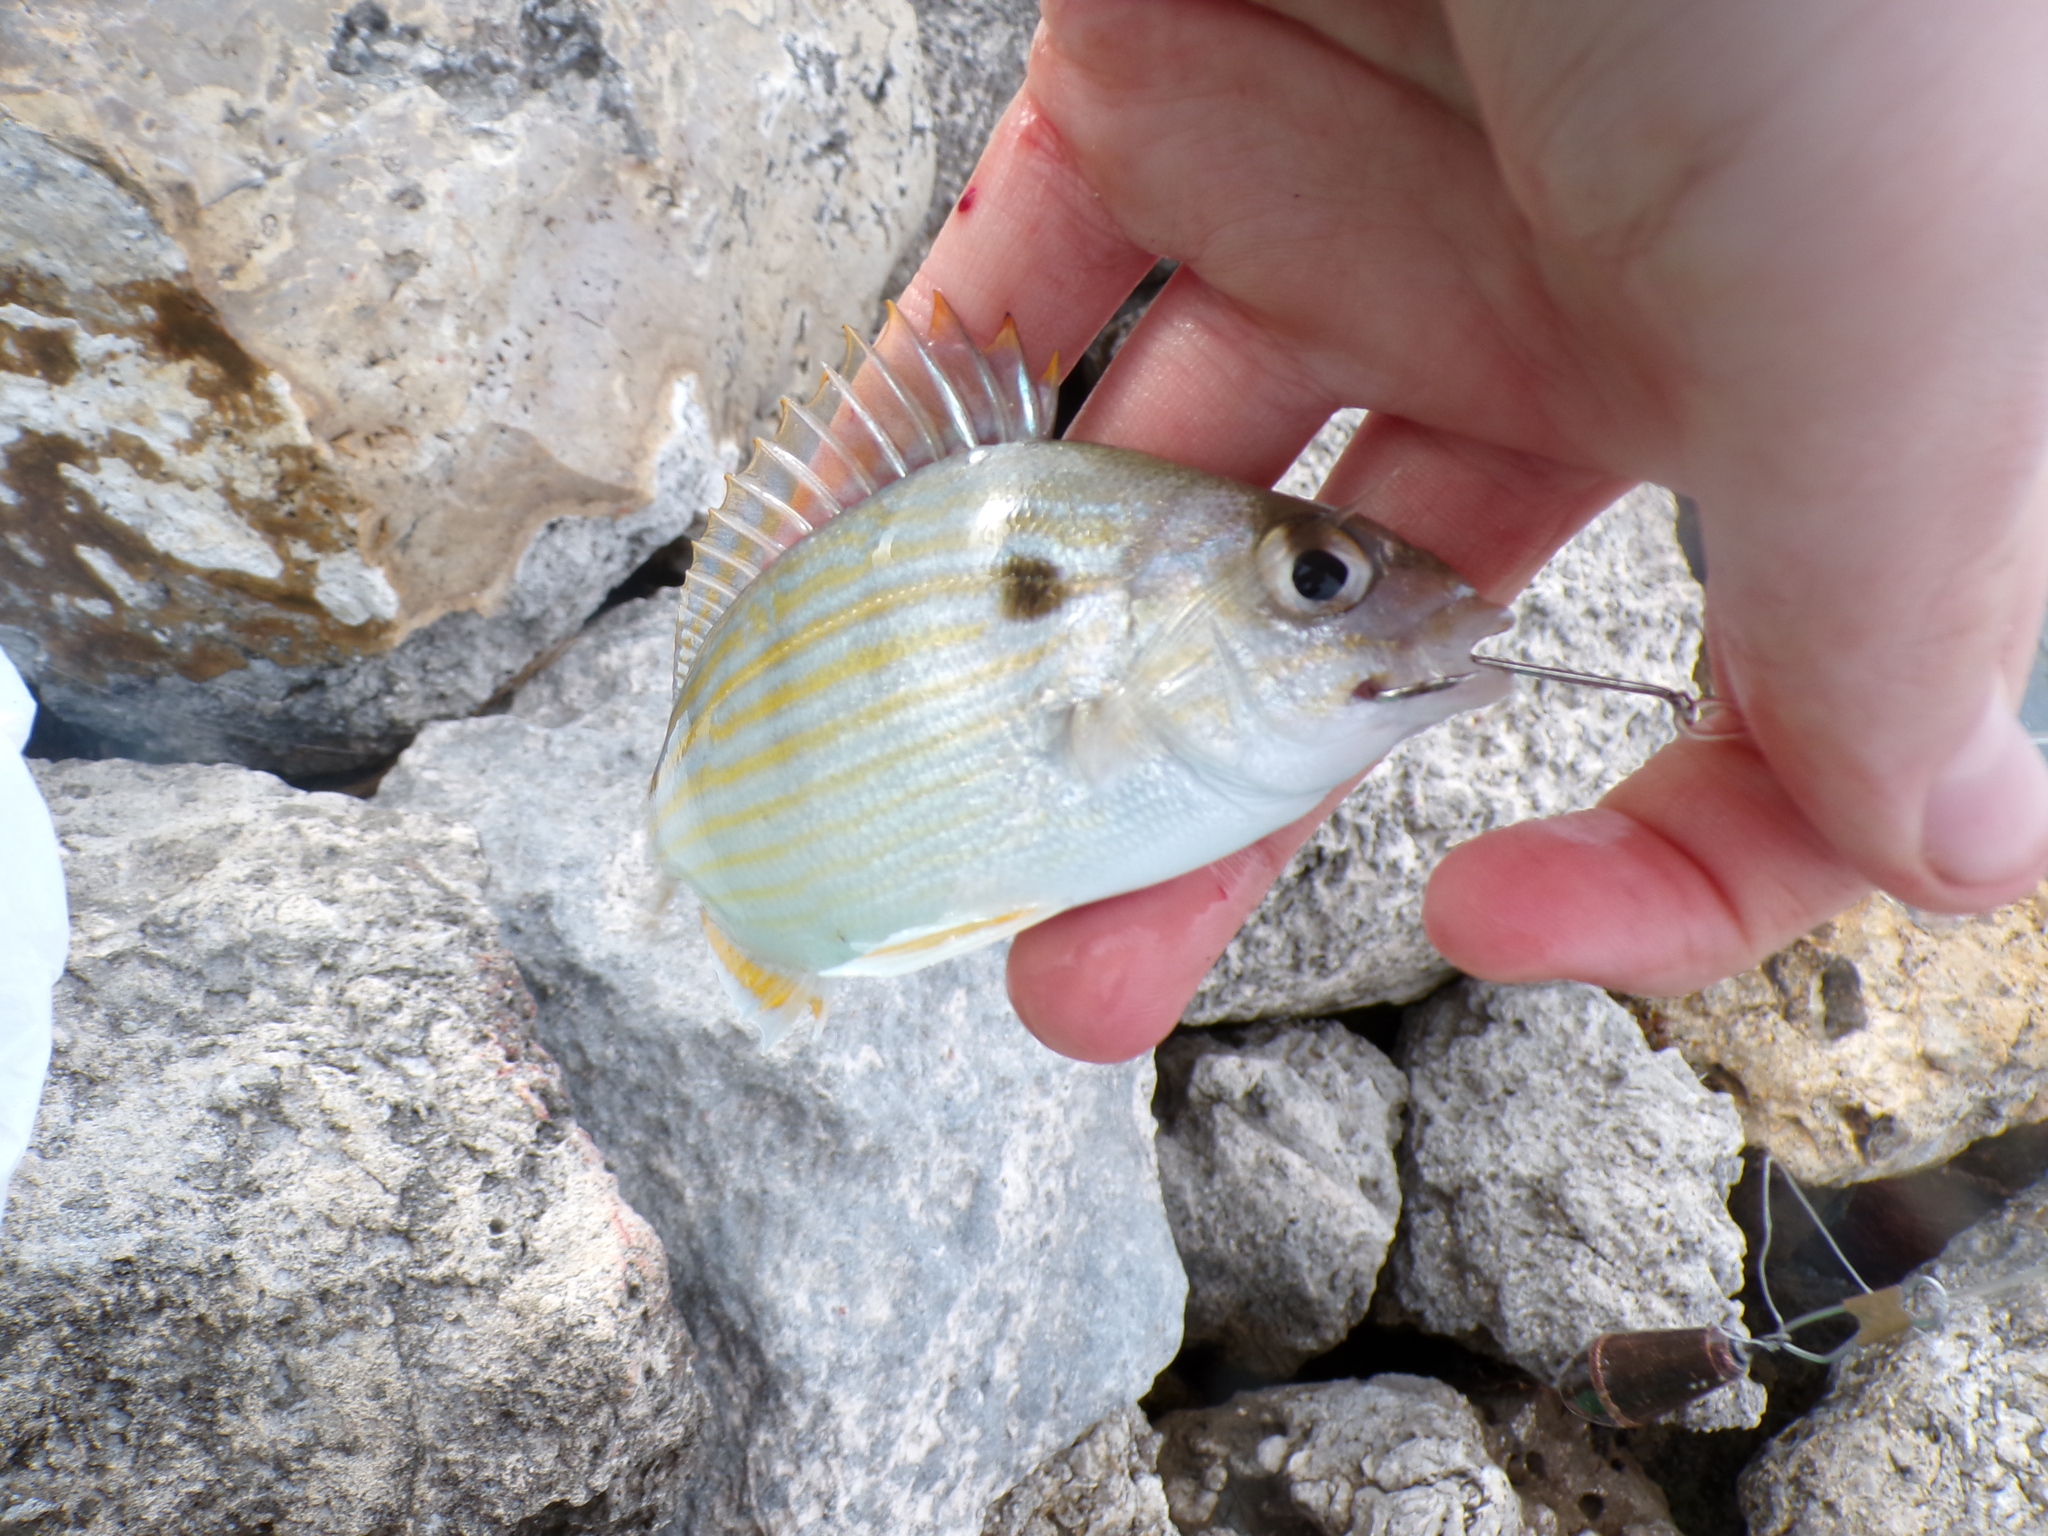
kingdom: Animalia
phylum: Chordata
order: Perciformes
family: Sparidae
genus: Lagodon
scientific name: Lagodon rhomboides
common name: Pinfish
